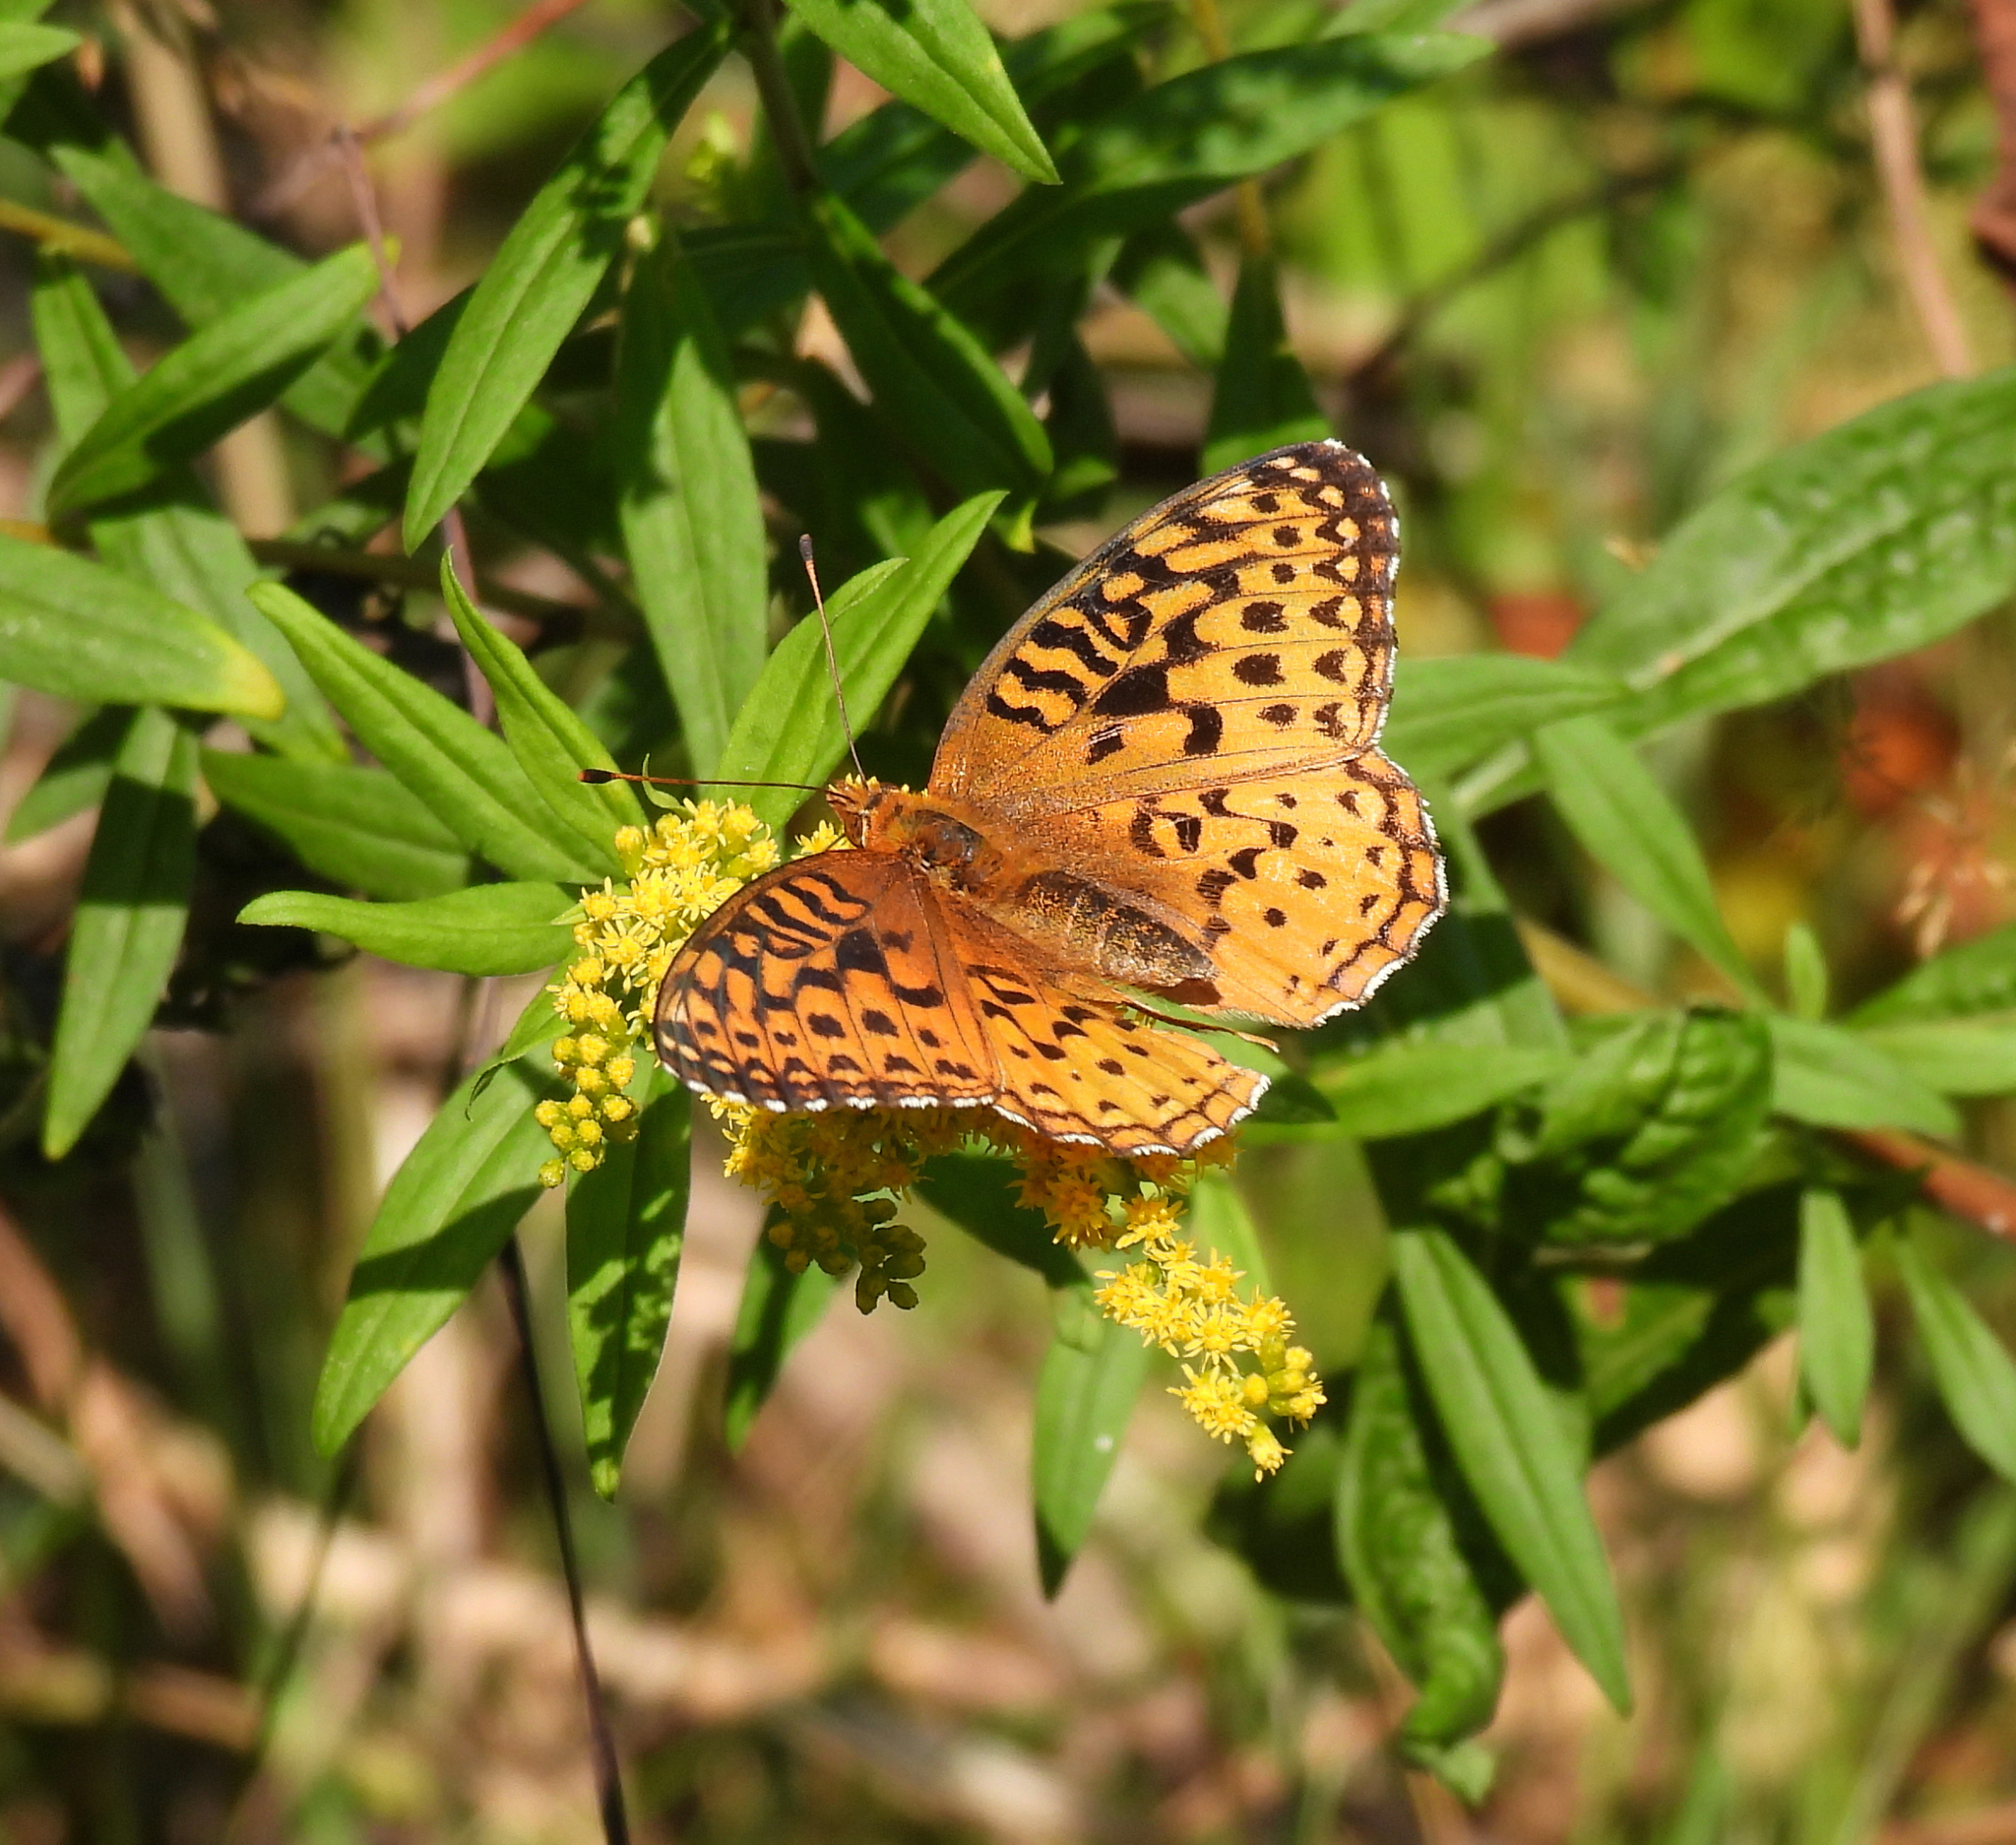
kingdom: Animalia
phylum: Arthropoda
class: Insecta
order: Lepidoptera
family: Nymphalidae
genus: Speyeria
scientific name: Speyeria aphrodite
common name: Aphrodite friitllary
